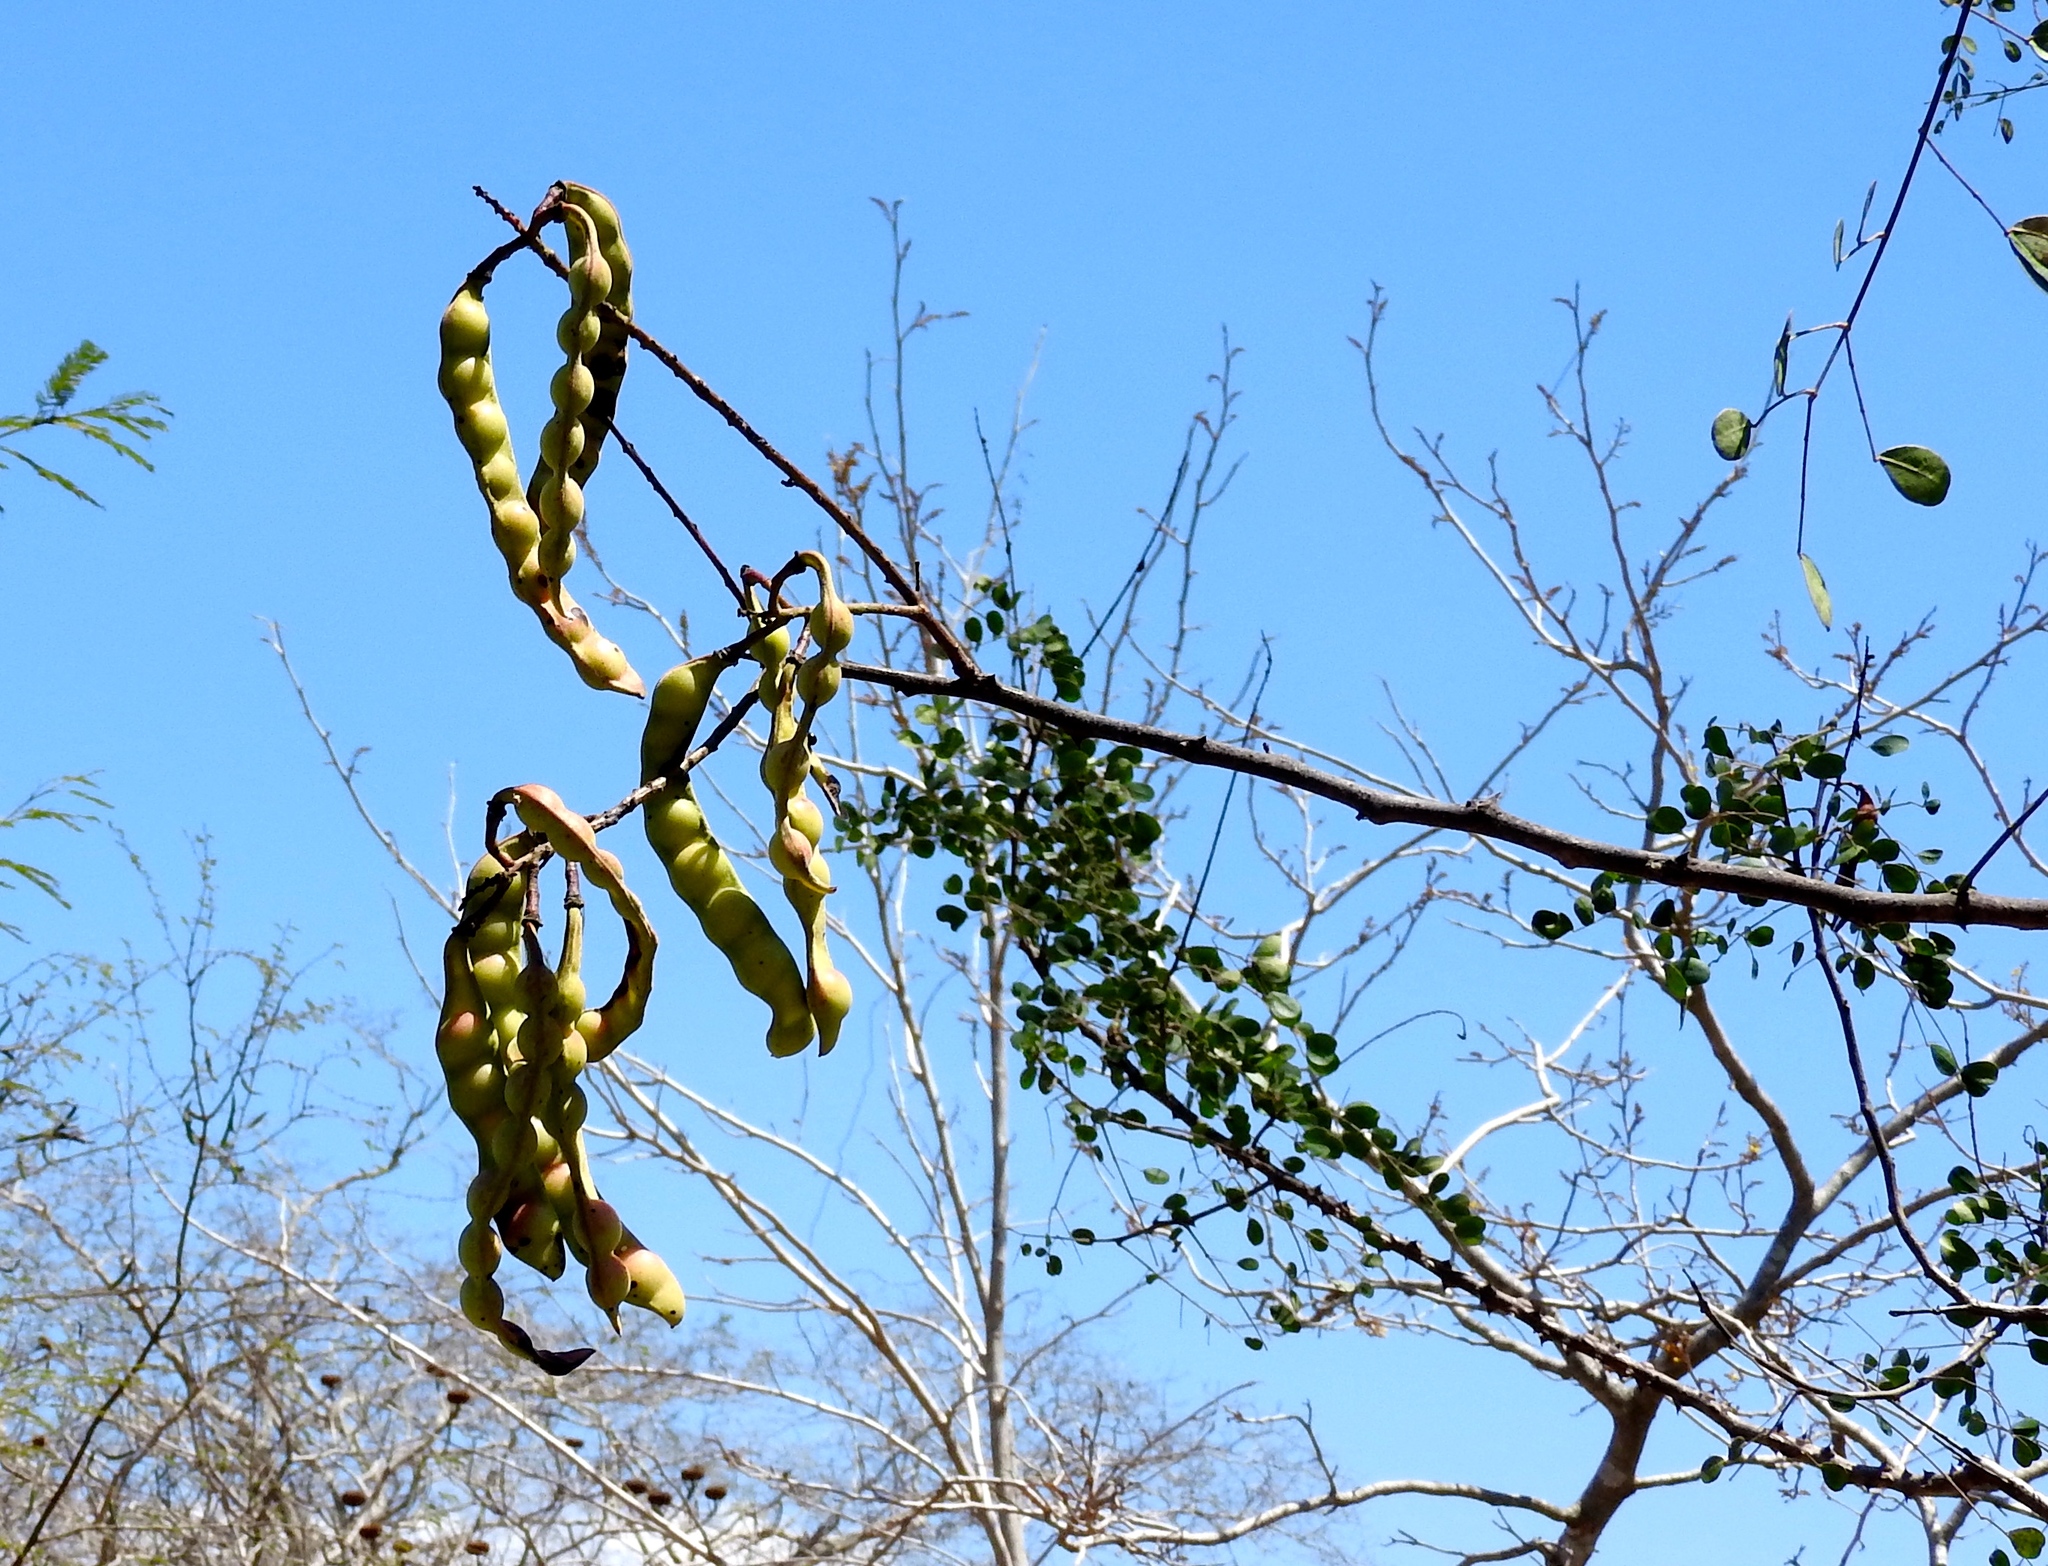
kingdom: Plantae
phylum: Tracheophyta
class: Magnoliopsida
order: Fabales
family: Fabaceae
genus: Tara
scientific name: Tara cacalaco
